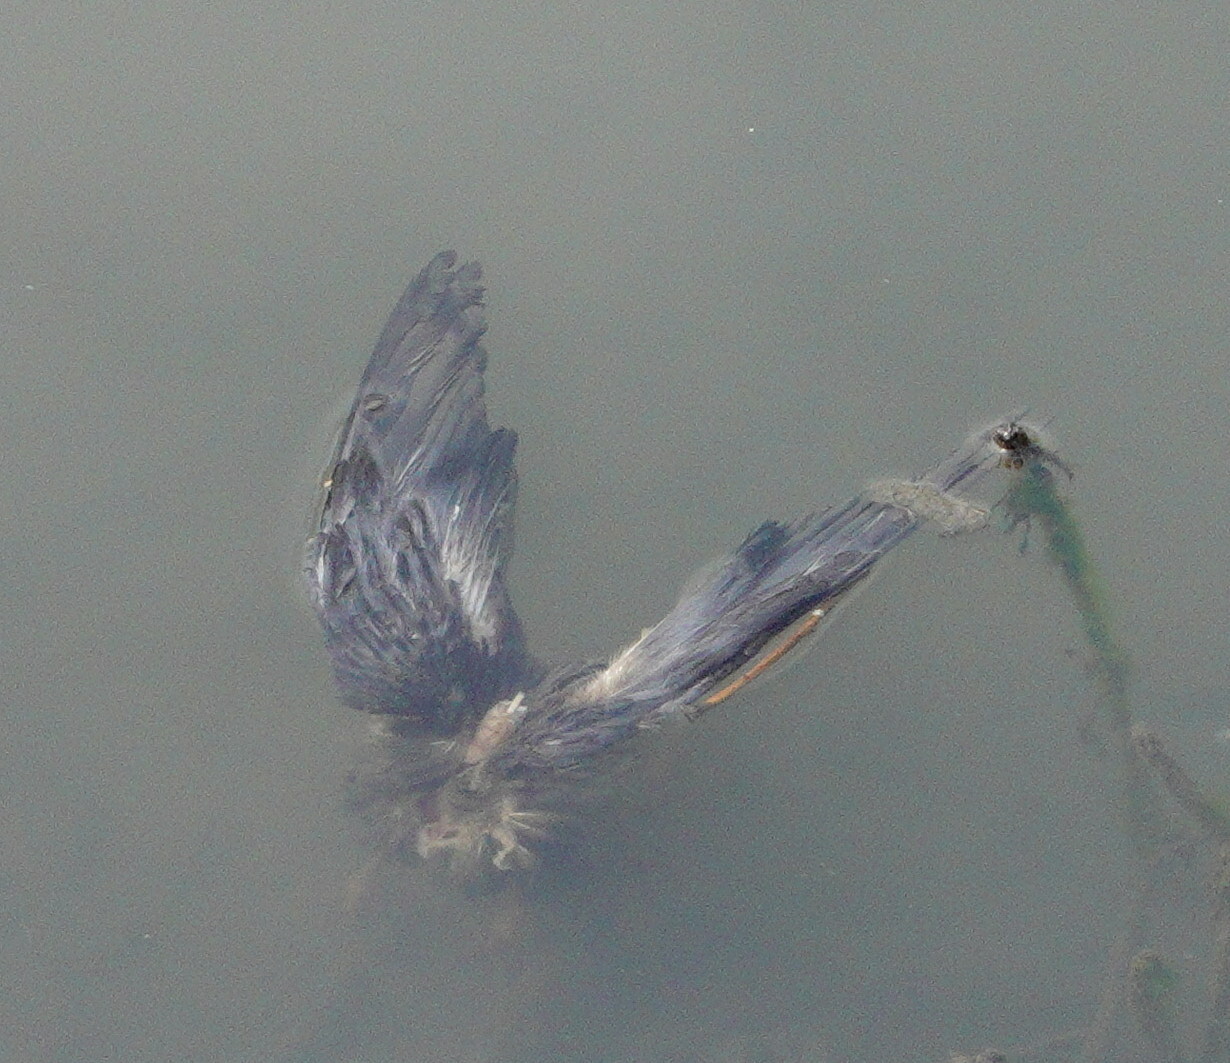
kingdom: Animalia
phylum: Chordata
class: Aves
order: Columbiformes
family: Columbidae
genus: Columba
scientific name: Columba livia
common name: Rock pigeon
